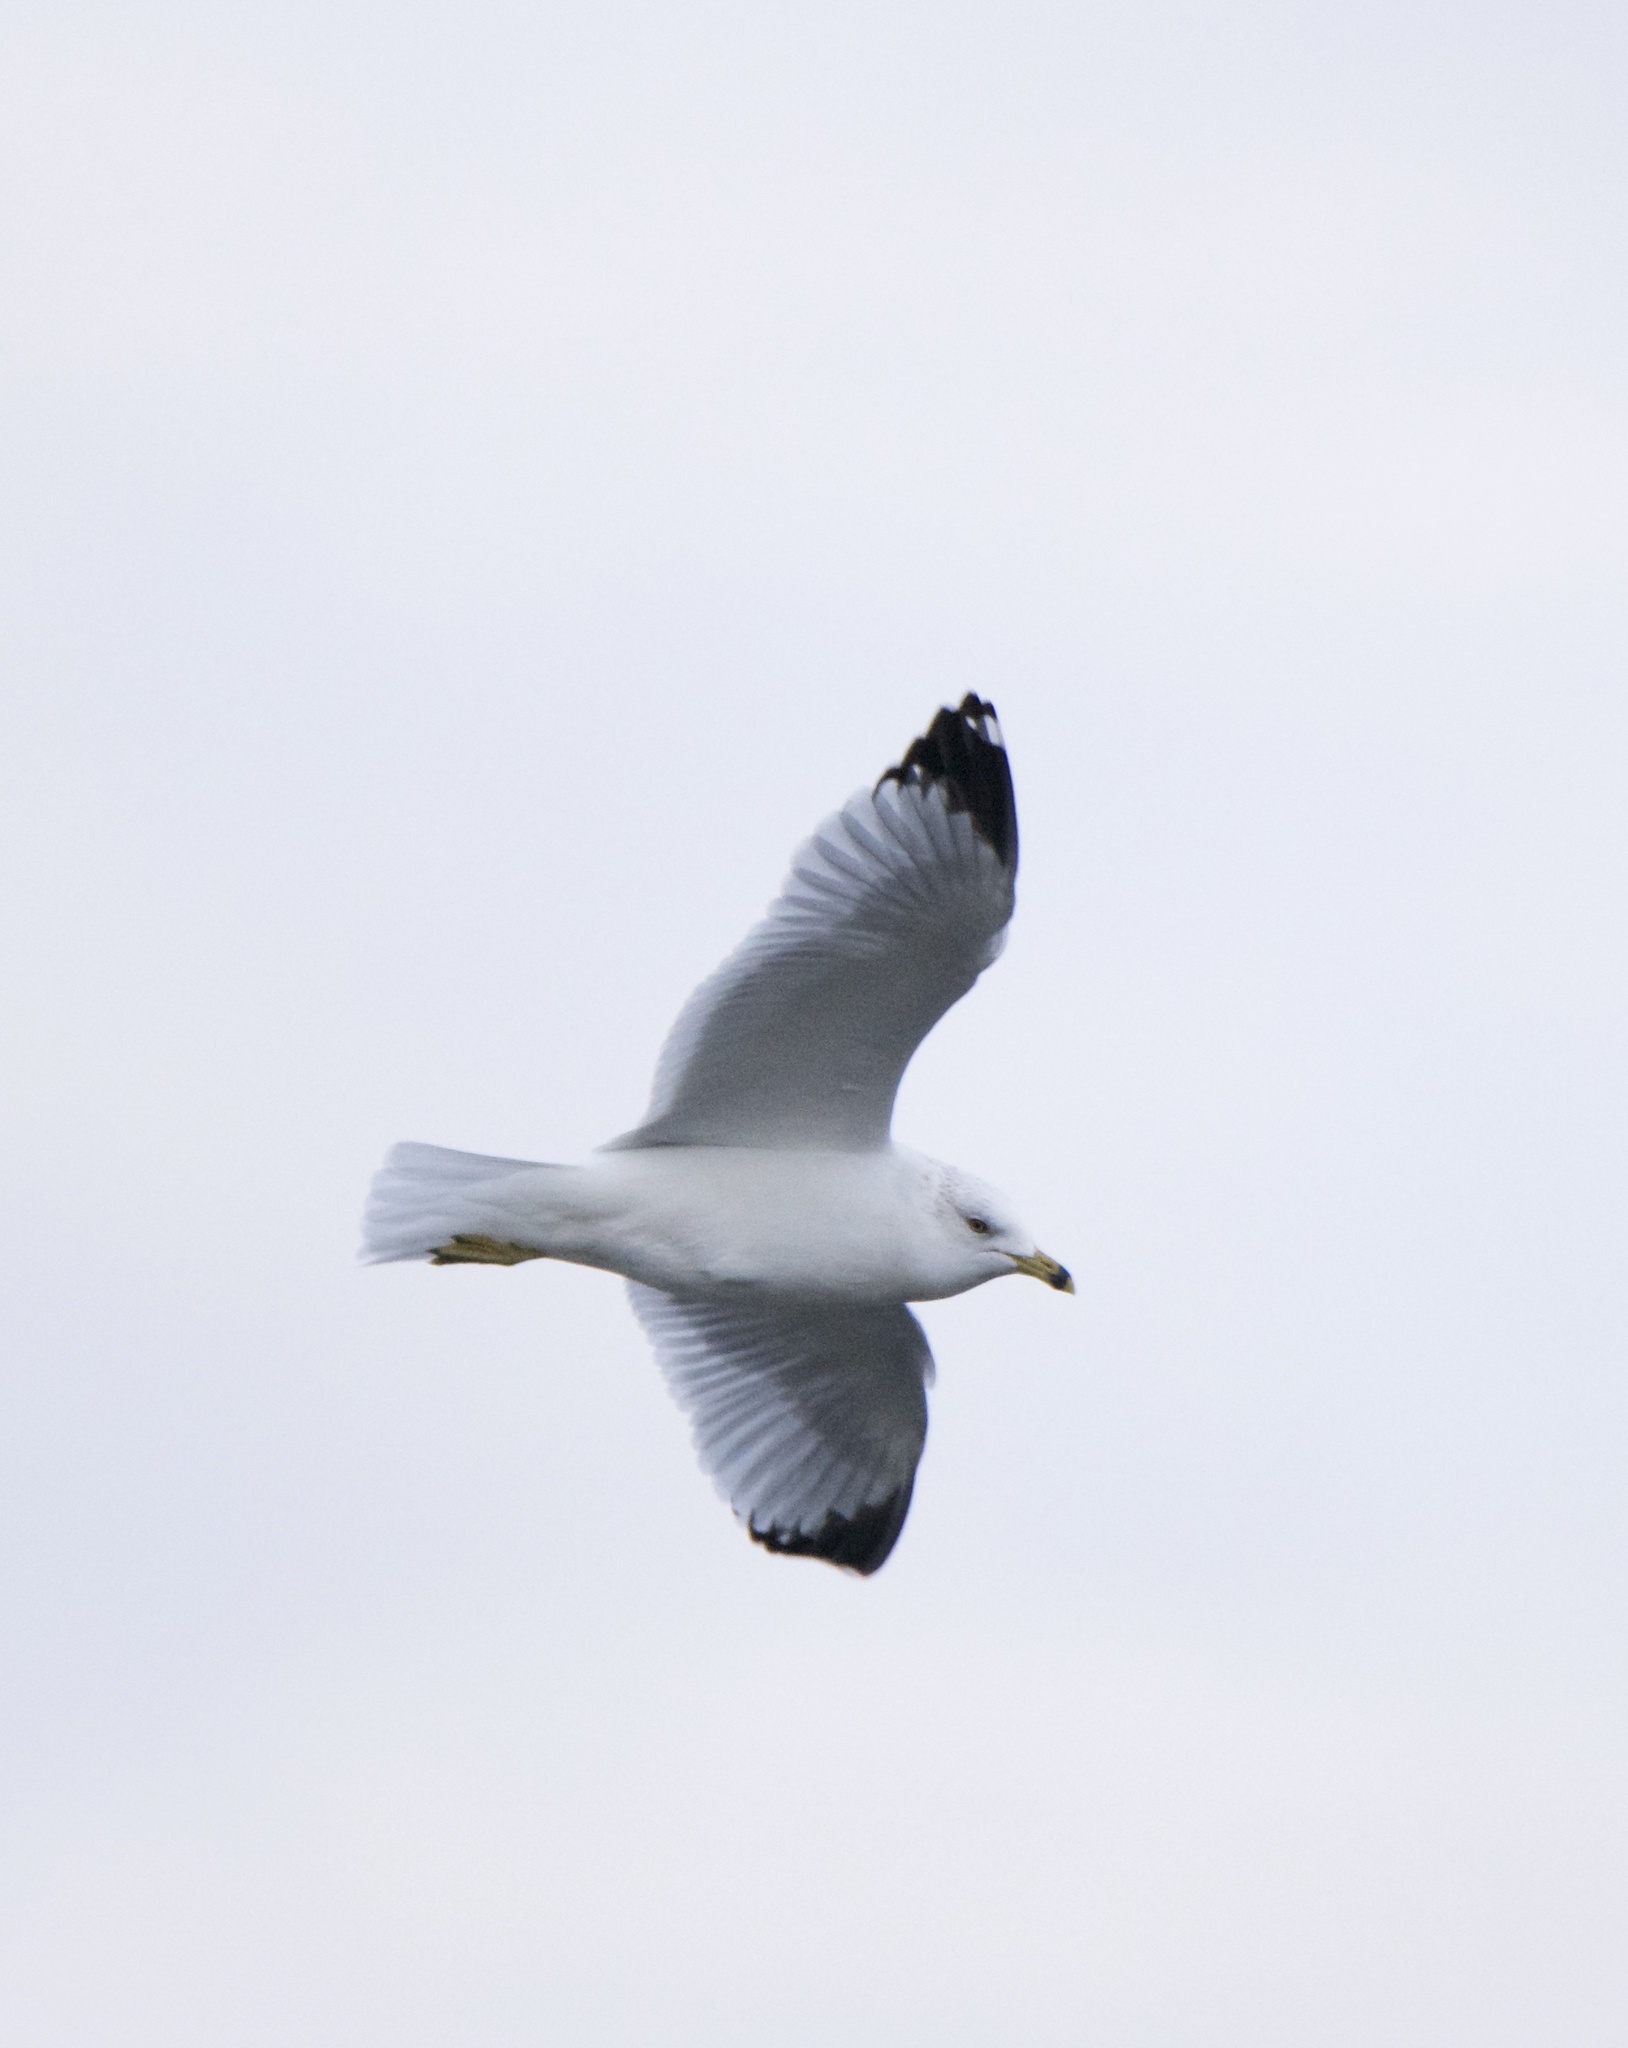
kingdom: Animalia
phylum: Chordata
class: Aves
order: Charadriiformes
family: Laridae
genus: Larus
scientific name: Larus delawarensis
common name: Ring-billed gull
